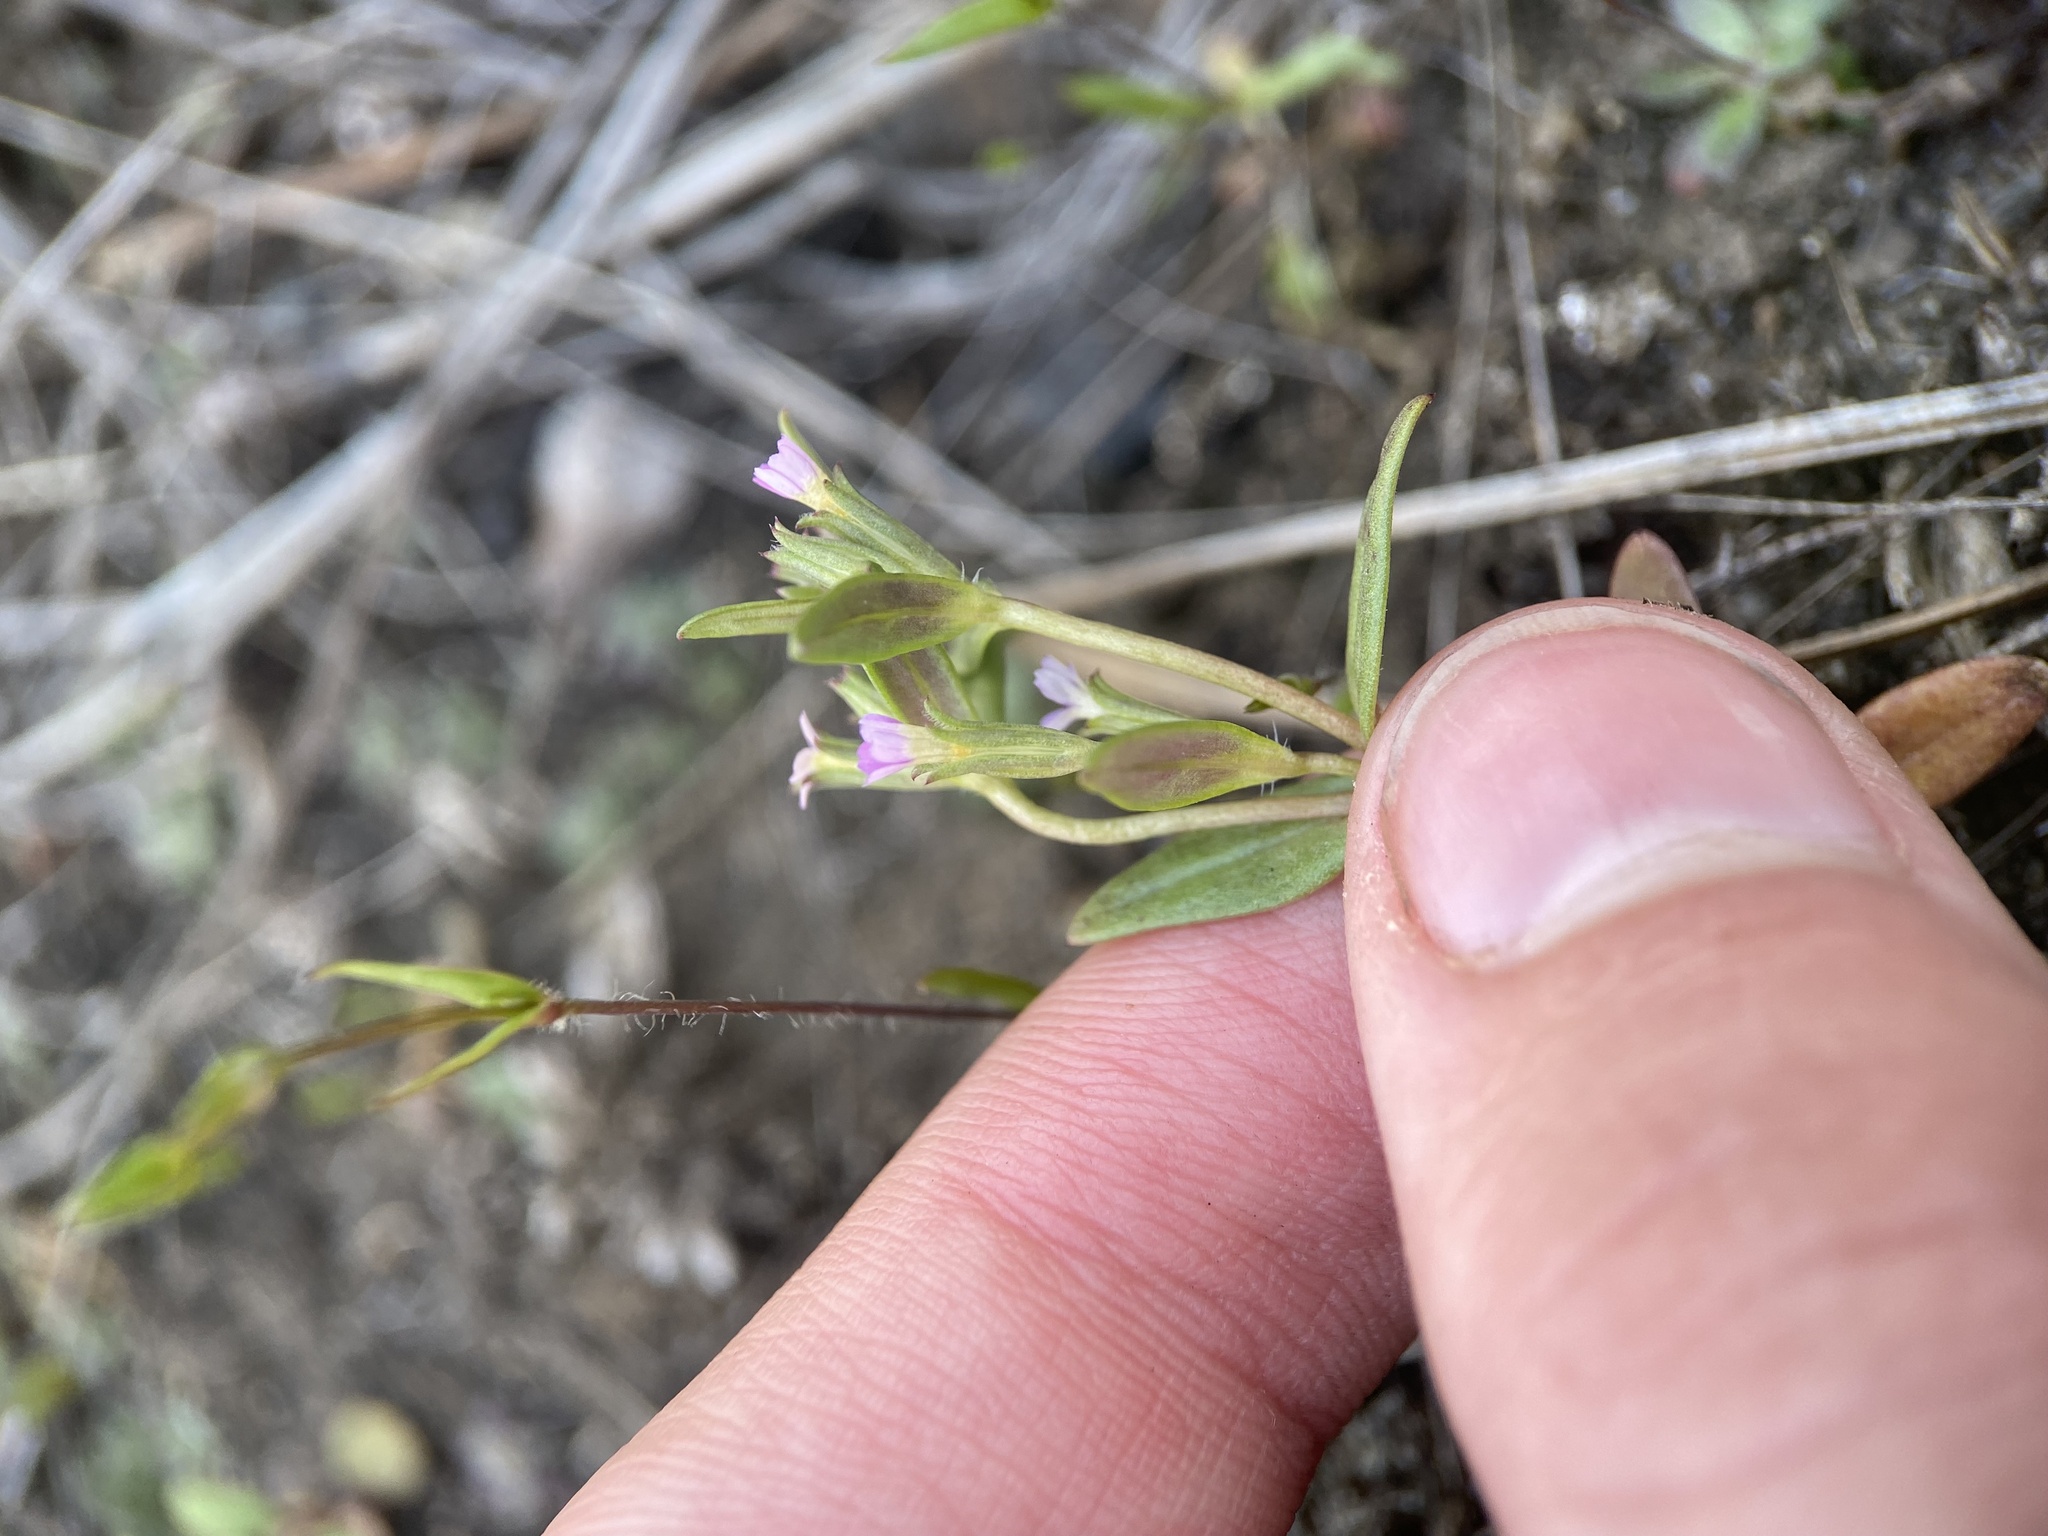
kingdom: Plantae
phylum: Tracheophyta
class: Magnoliopsida
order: Ericales
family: Polemoniaceae
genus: Phlox
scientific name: Phlox gracilis
